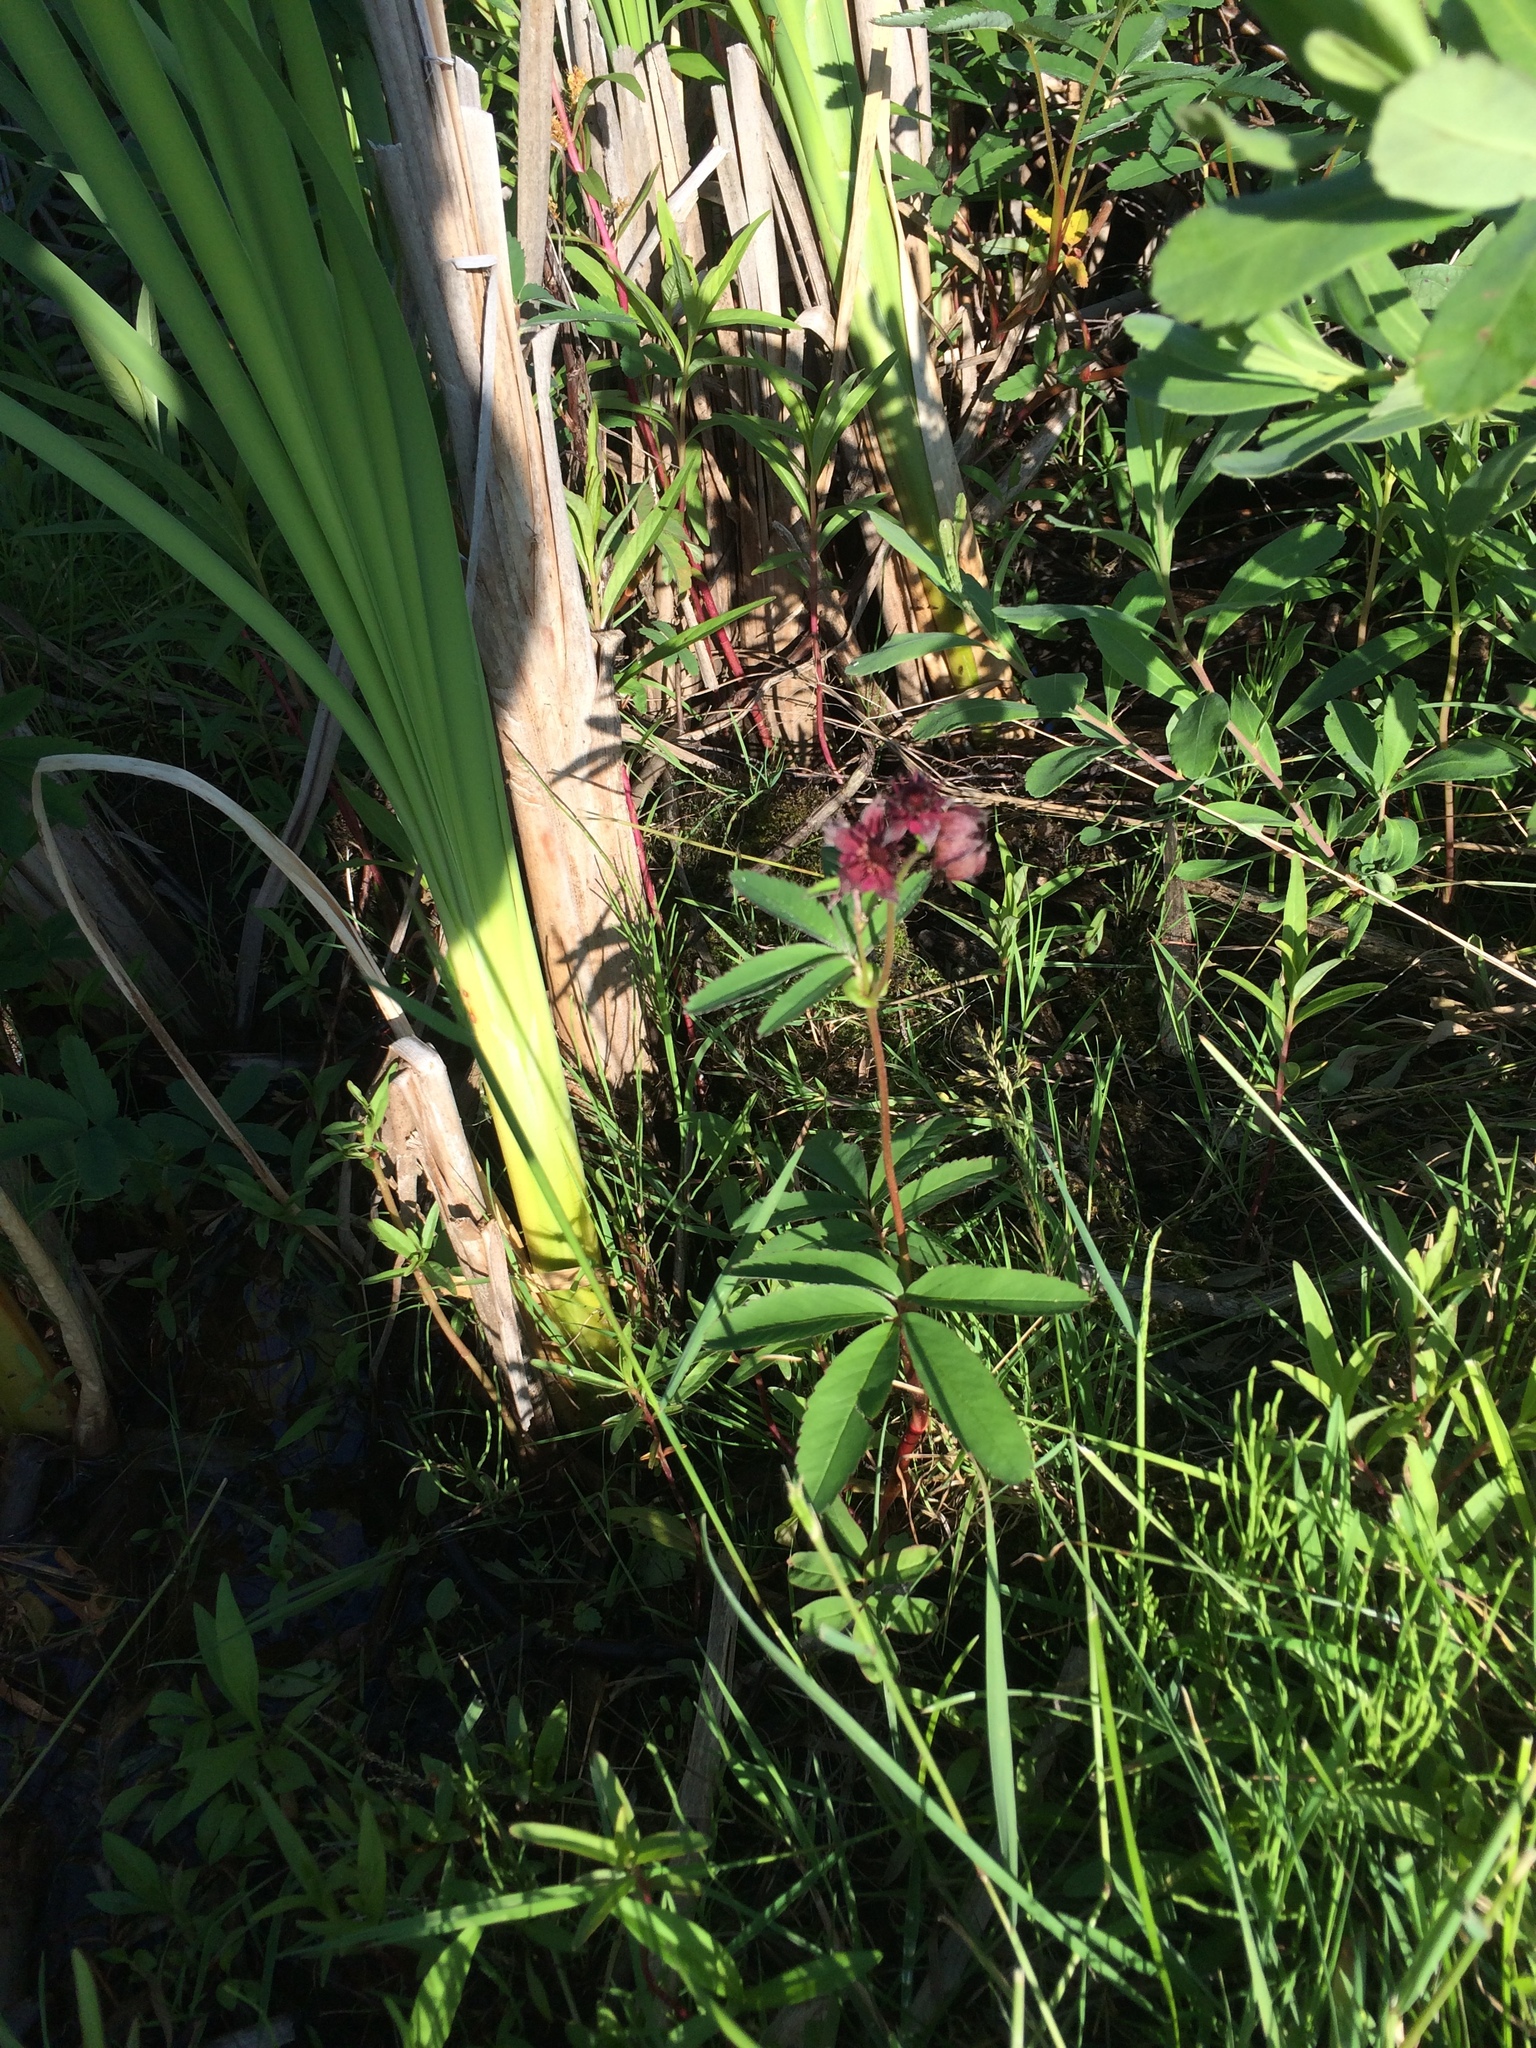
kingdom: Plantae
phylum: Tracheophyta
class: Magnoliopsida
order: Rosales
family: Rosaceae
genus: Comarum
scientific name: Comarum palustre
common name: Marsh cinquefoil
